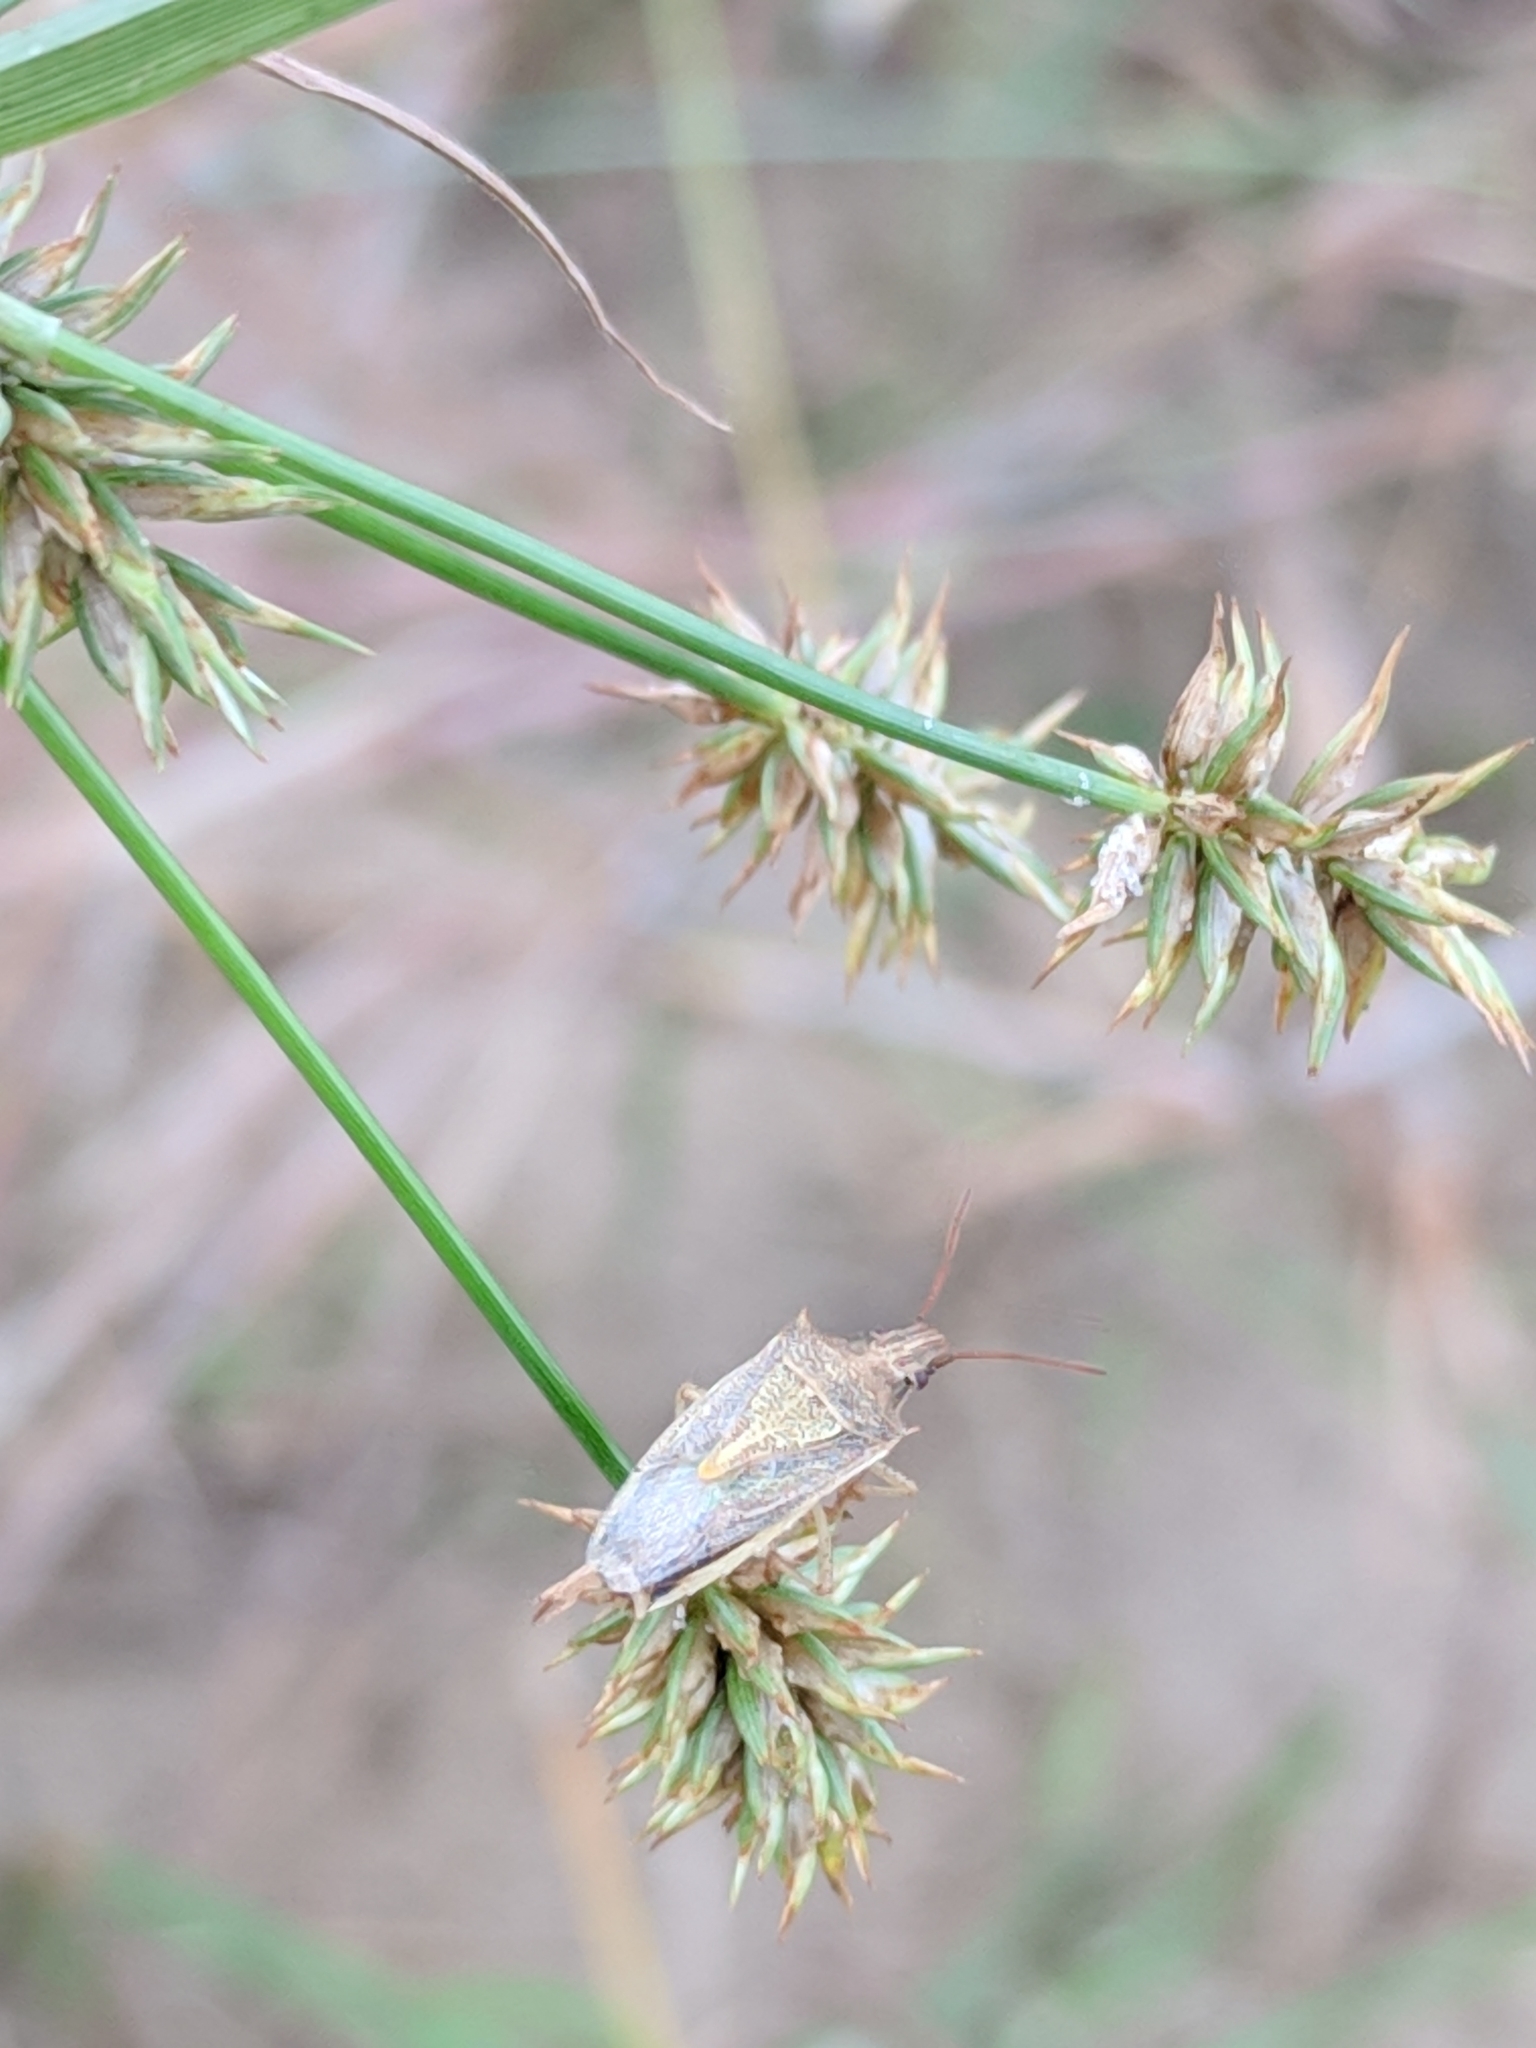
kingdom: Animalia
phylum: Arthropoda
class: Insecta
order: Hemiptera
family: Pentatomidae
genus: Oebalus
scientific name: Oebalus pugnax
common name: Rice stink bug
